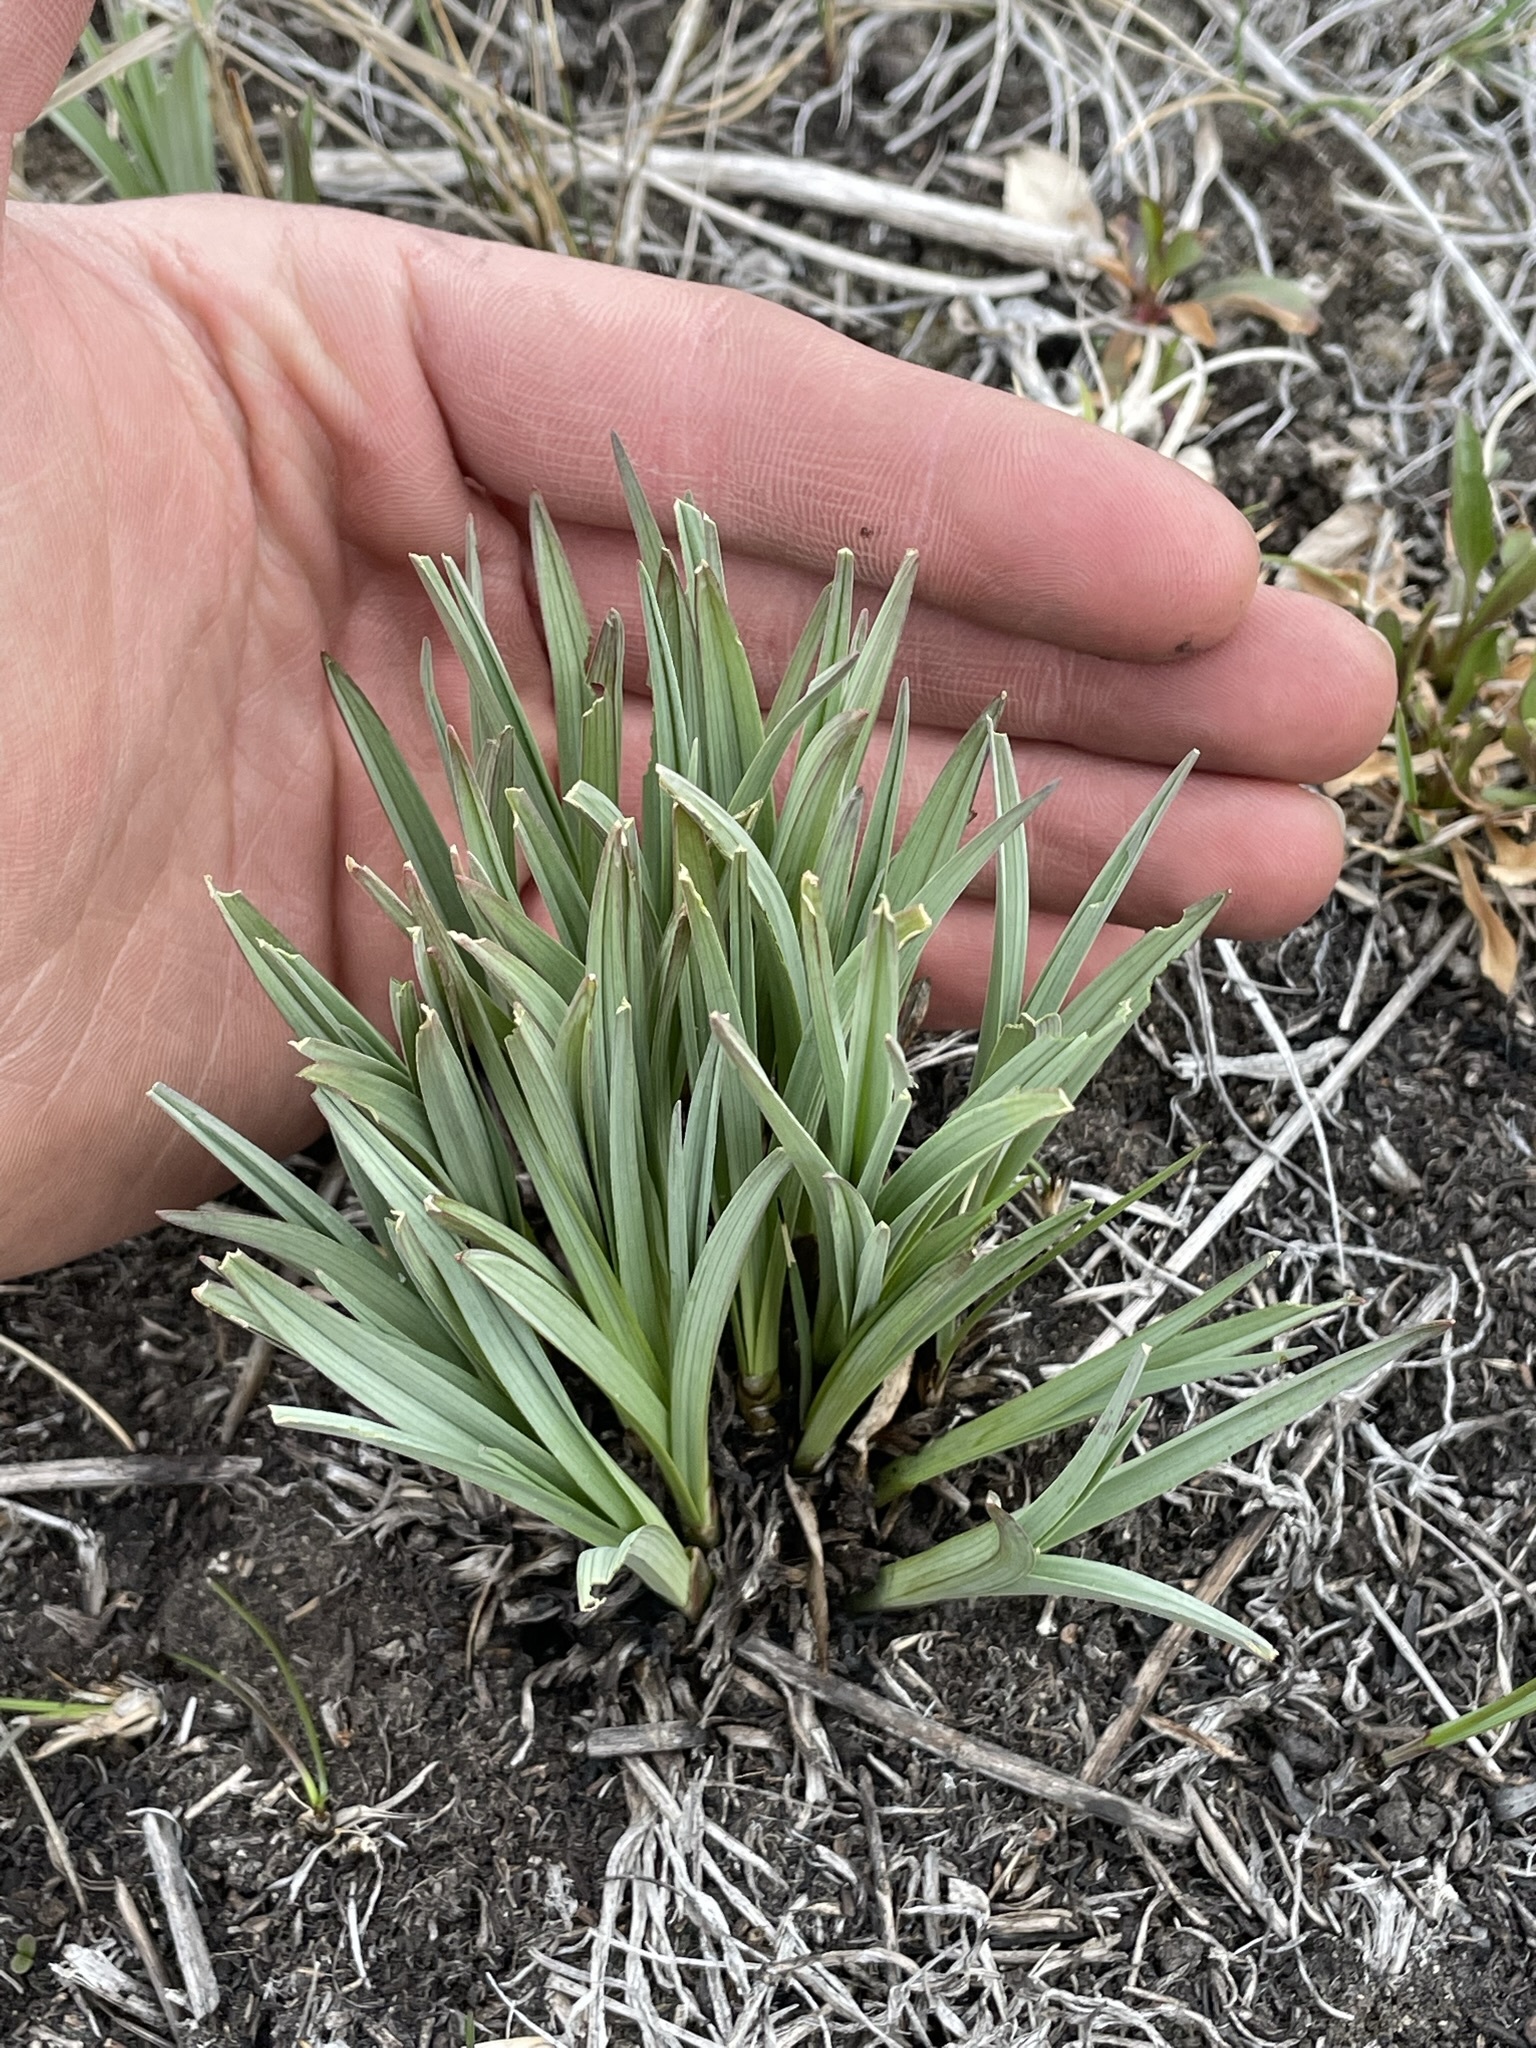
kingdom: Plantae
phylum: Tracheophyta
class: Liliopsida
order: Liliales
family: Melanthiaceae
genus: Anticlea
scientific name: Anticlea elegans
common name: Mountain death camas
